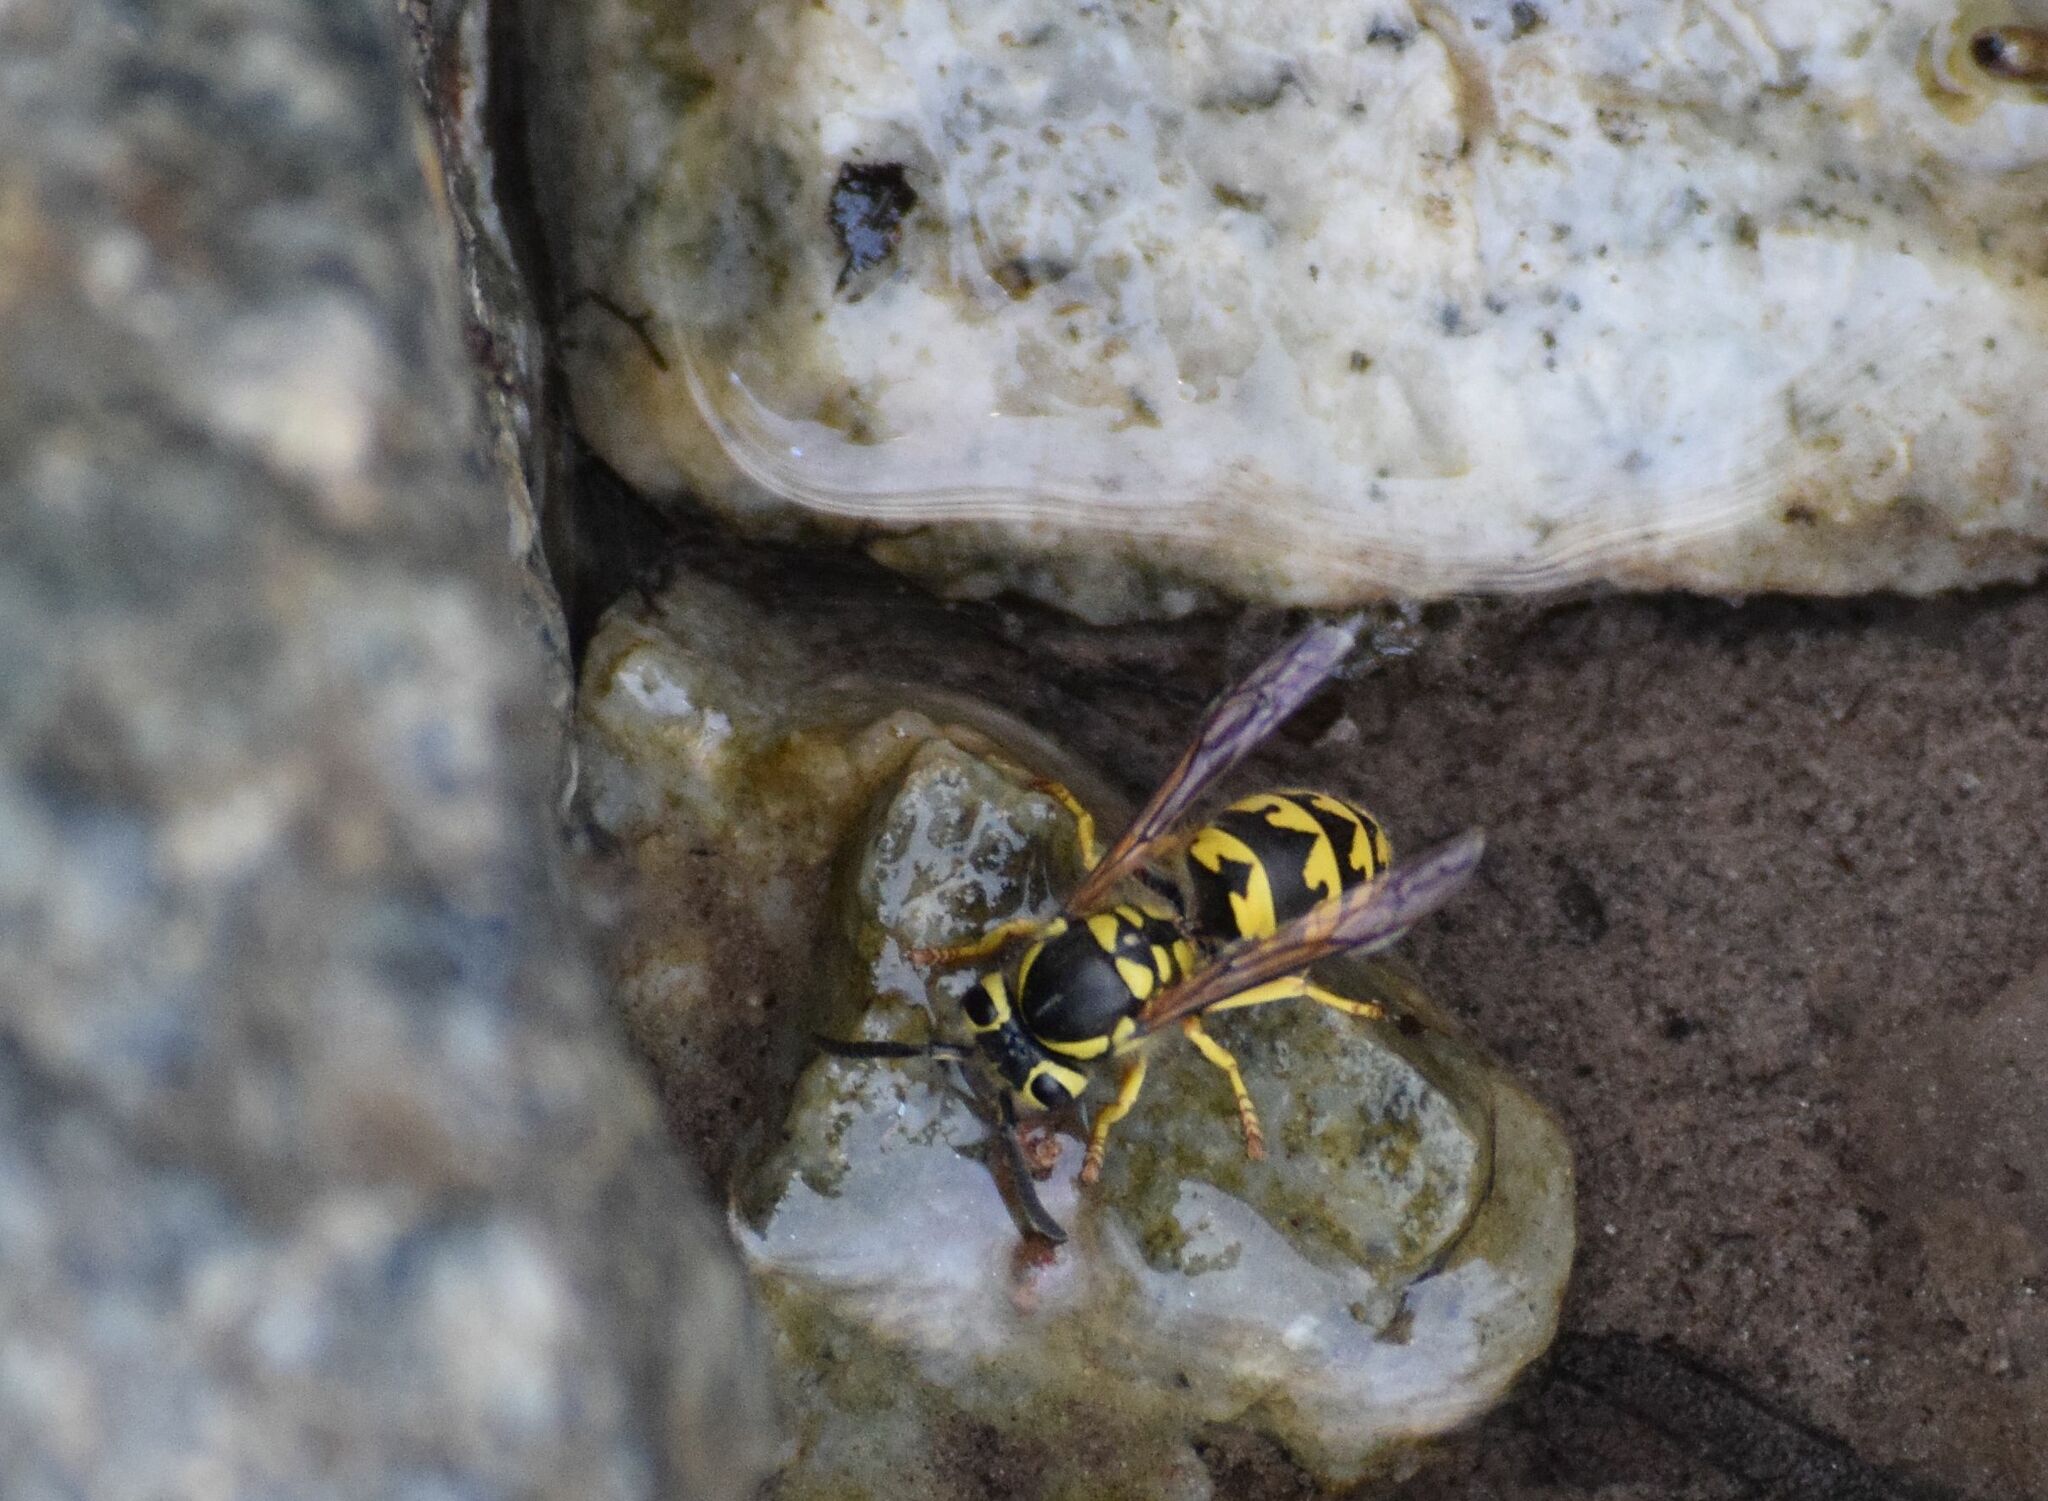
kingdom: Animalia
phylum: Arthropoda
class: Insecta
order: Hymenoptera
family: Vespidae
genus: Vespula
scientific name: Vespula pensylvanica
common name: Western yellowjacket
